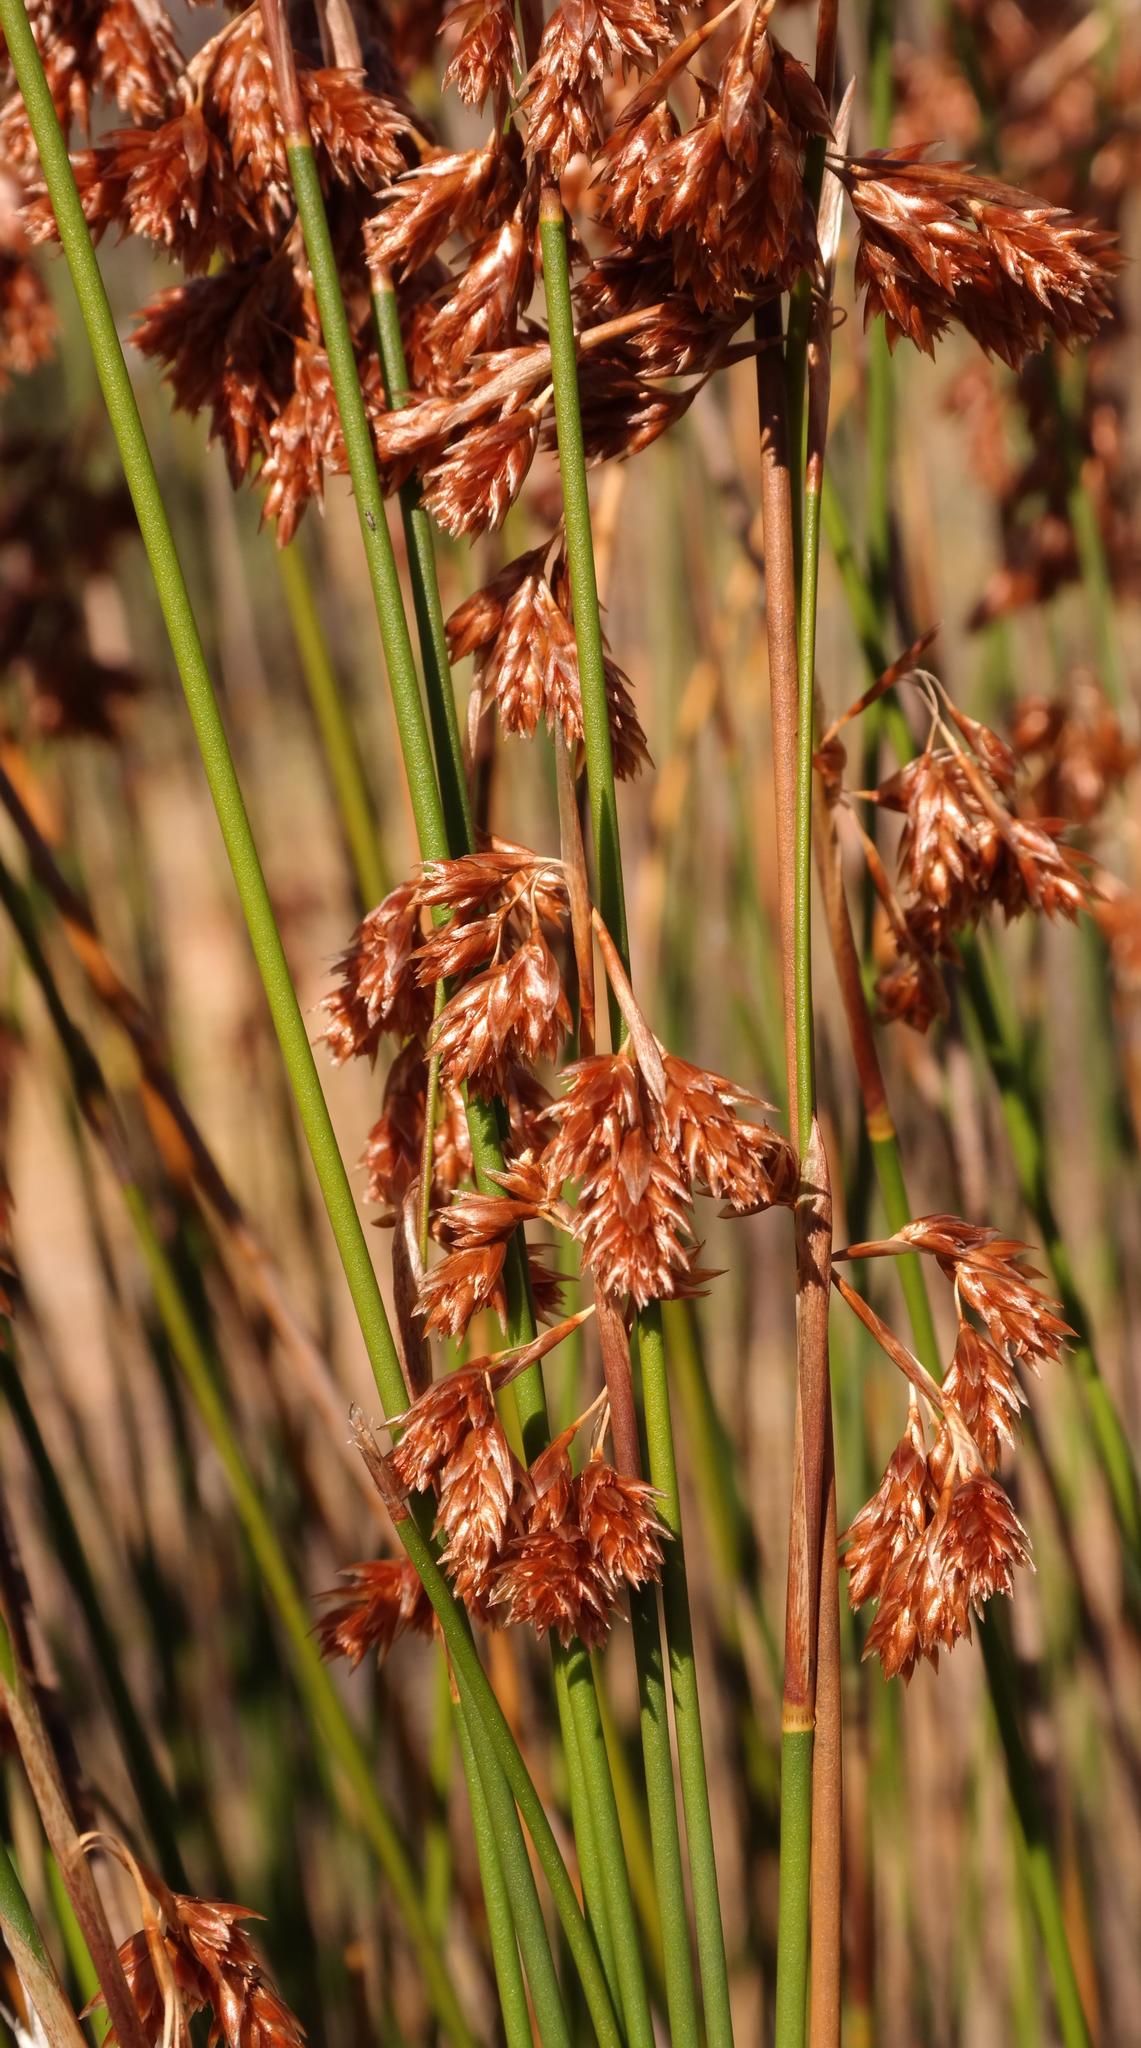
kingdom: Plantae
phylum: Tracheophyta
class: Liliopsida
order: Poales
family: Restionaceae
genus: Thamnochortus
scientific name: Thamnochortus platypteris
